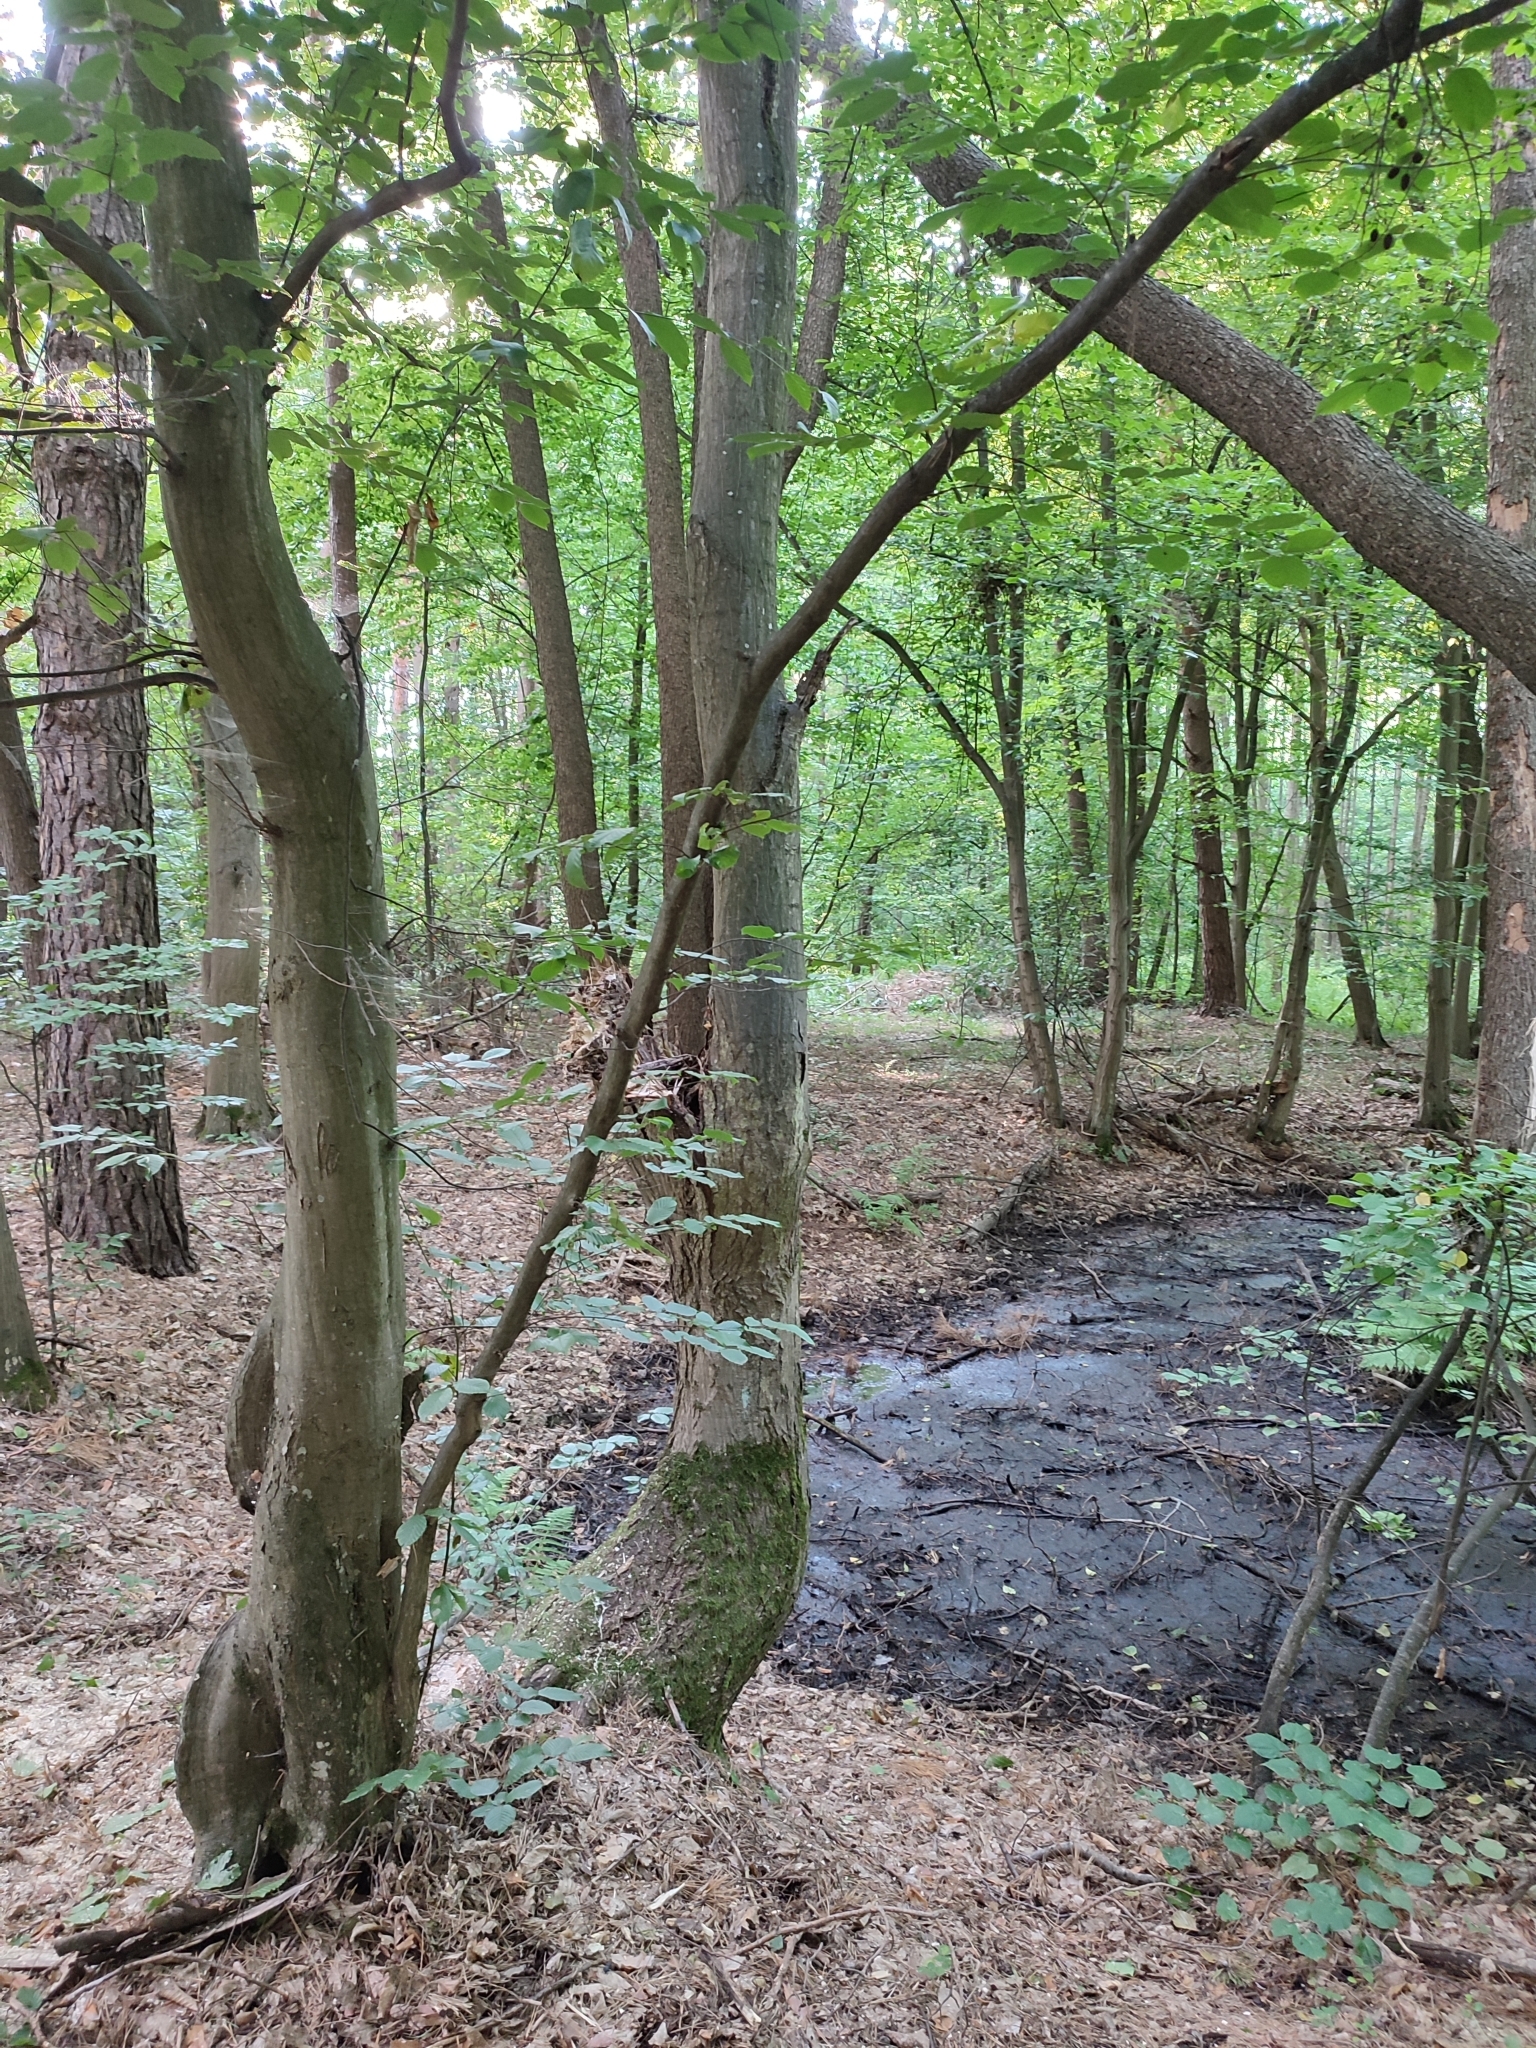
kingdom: Plantae
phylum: Tracheophyta
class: Magnoliopsida
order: Fagales
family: Betulaceae
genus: Carpinus
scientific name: Carpinus betulus
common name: Hornbeam
